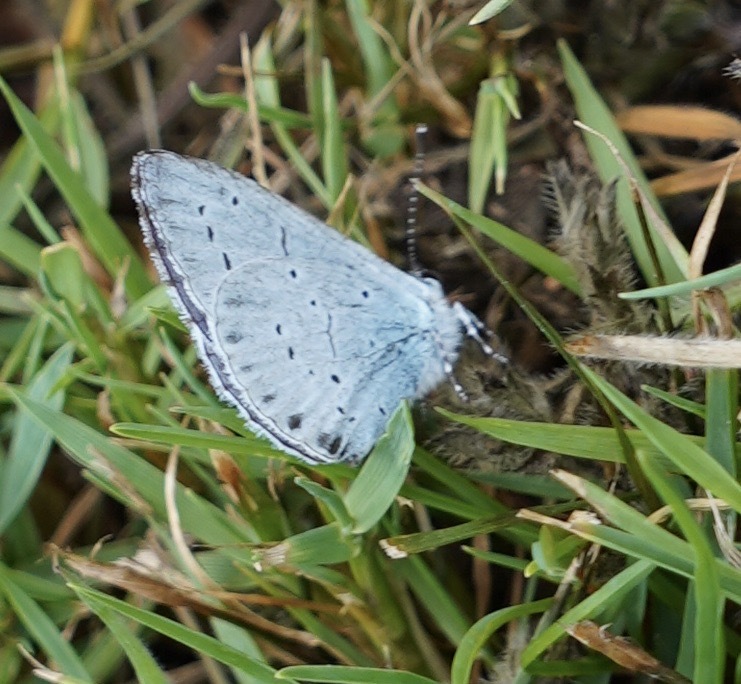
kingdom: Animalia
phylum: Arthropoda
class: Insecta
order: Lepidoptera
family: Lycaenidae
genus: Celastrina
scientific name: Celastrina argiolus
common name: Holly blue
